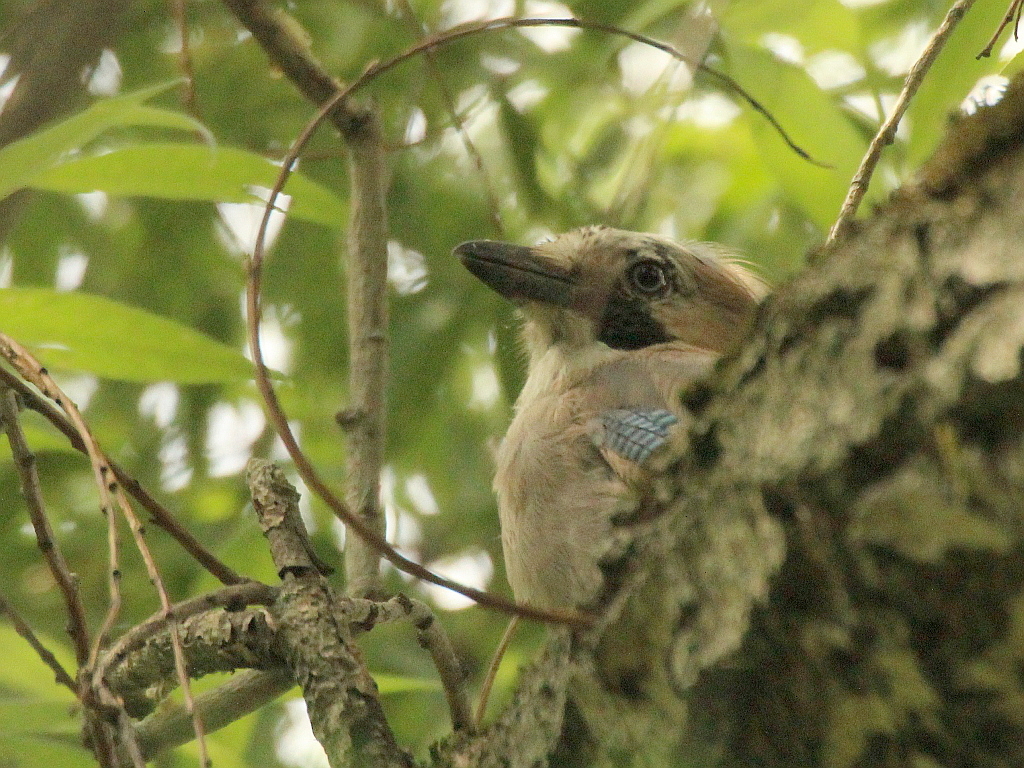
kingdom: Animalia
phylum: Chordata
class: Aves
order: Passeriformes
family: Corvidae
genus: Garrulus
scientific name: Garrulus glandarius
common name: Eurasian jay
